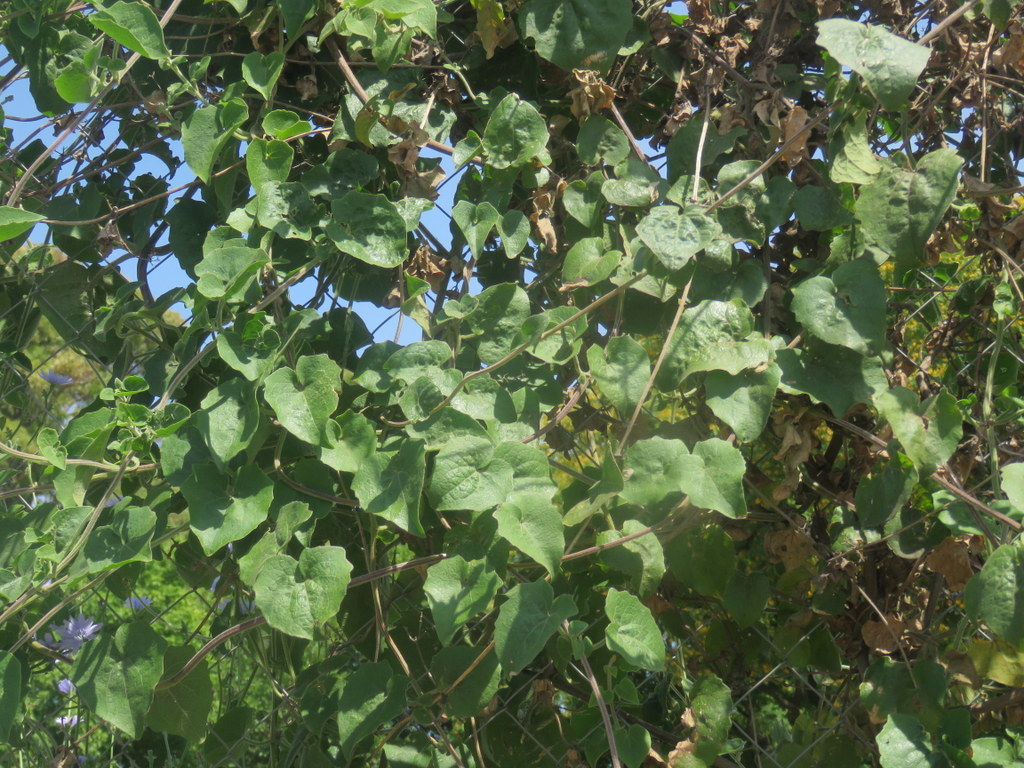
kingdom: Plantae
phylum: Tracheophyta
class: Magnoliopsida
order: Asterales
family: Asteraceae
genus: Mikania
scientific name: Mikania cordifolia
